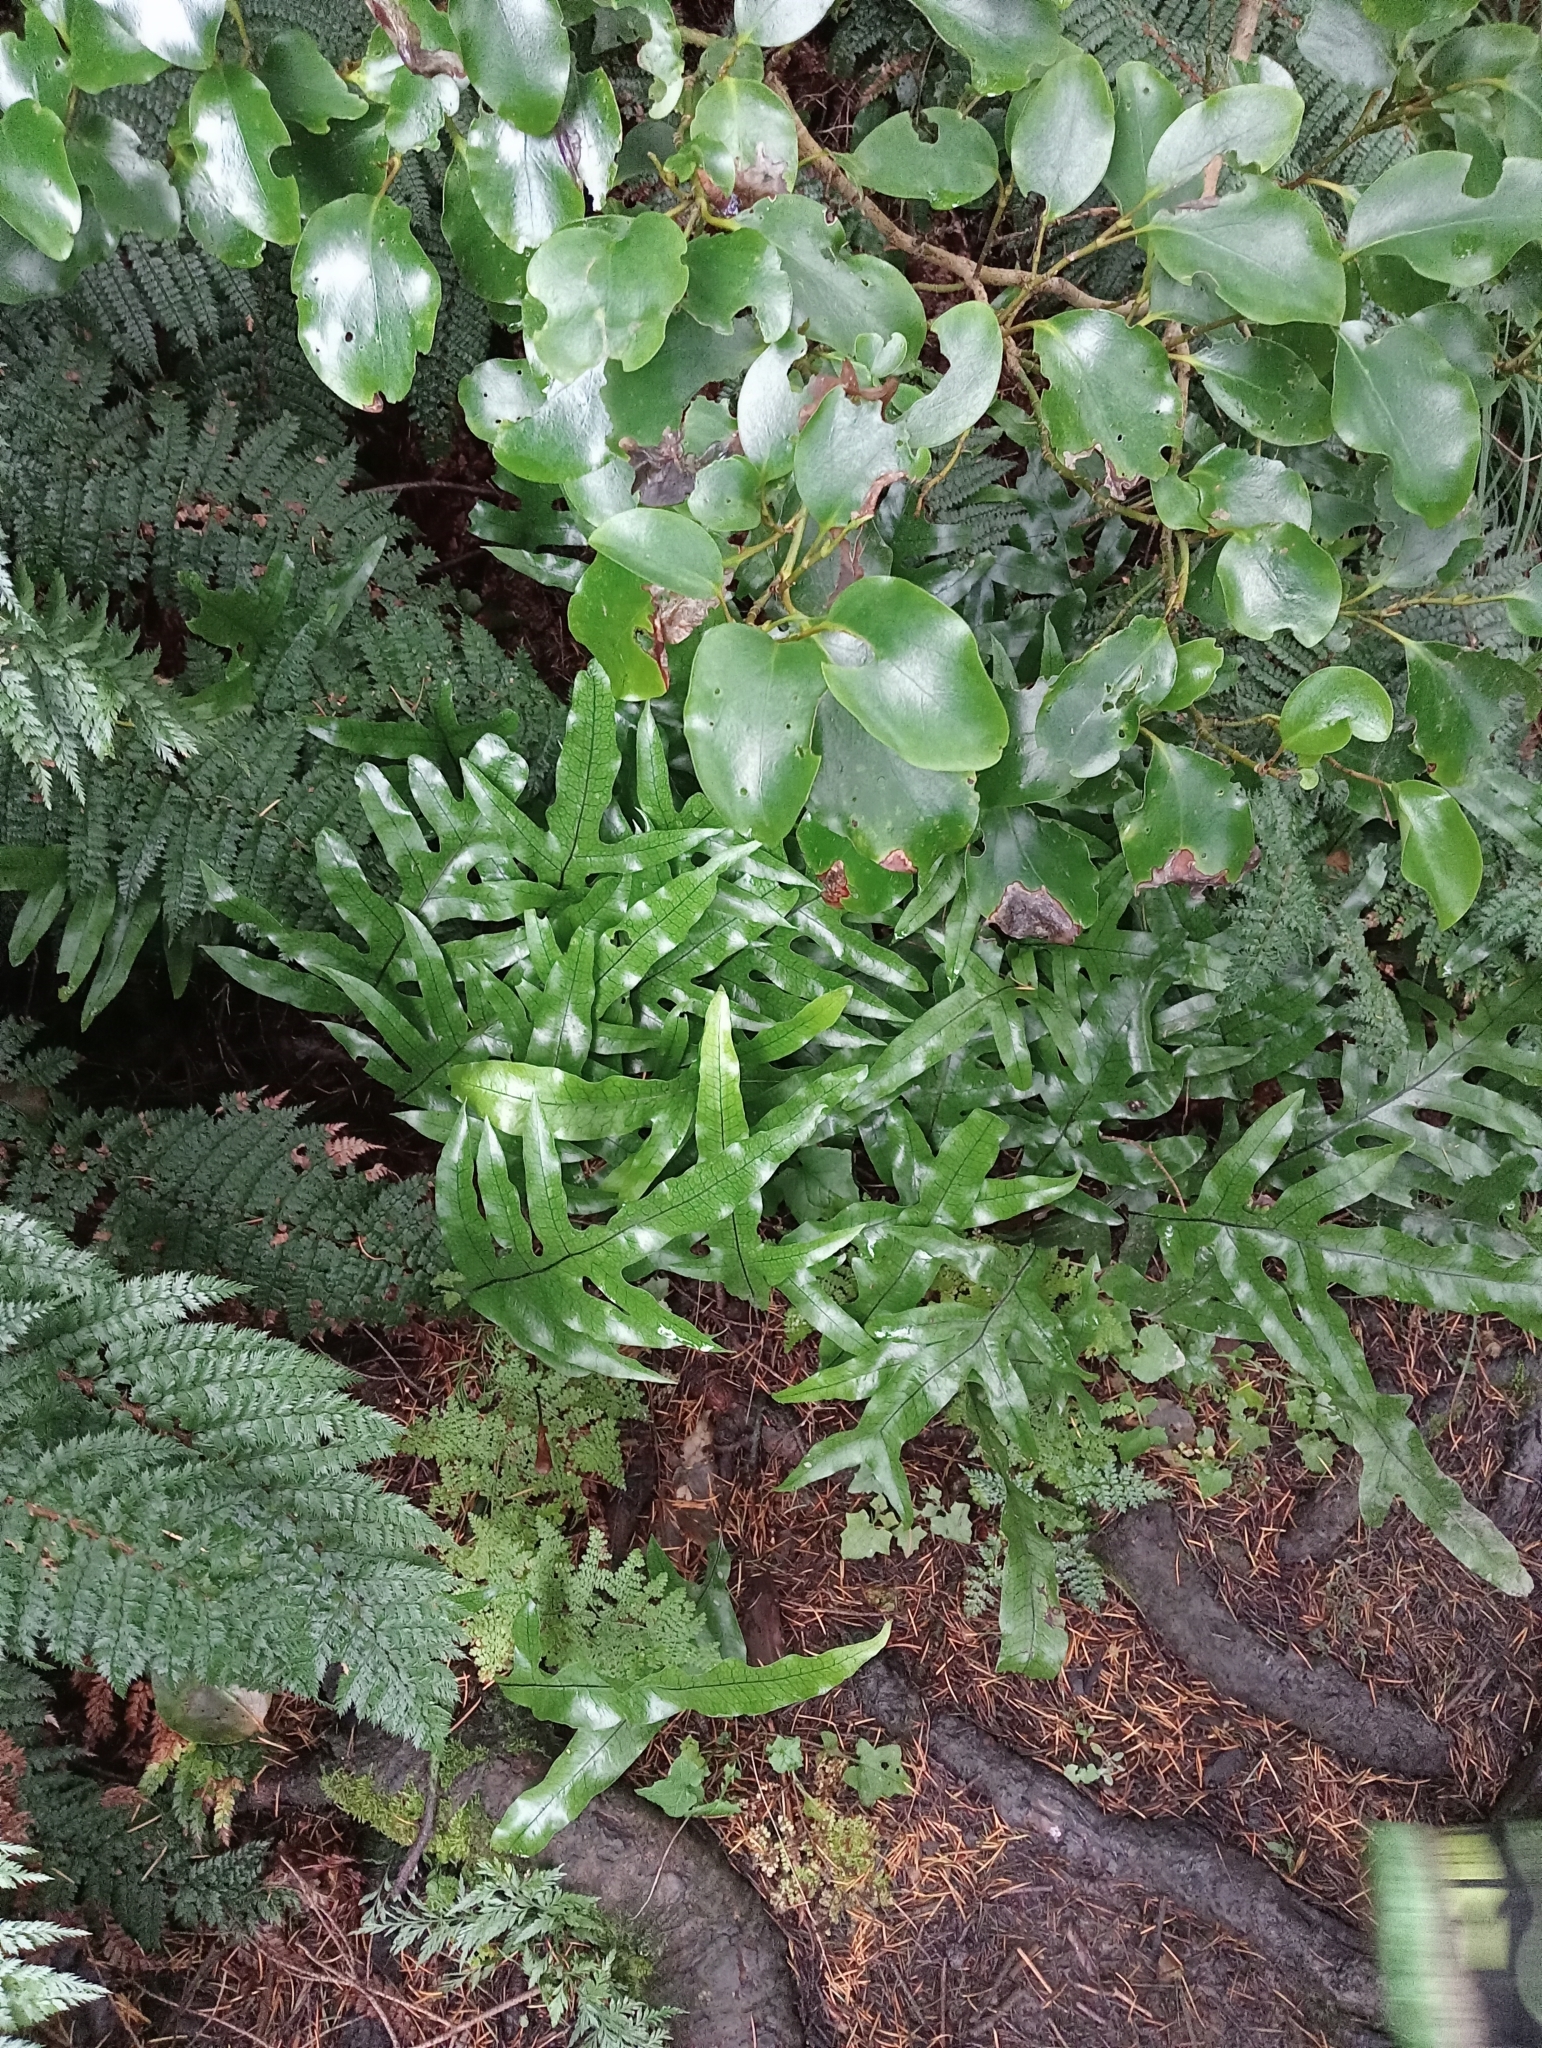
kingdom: Plantae
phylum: Tracheophyta
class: Polypodiopsida
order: Polypodiales
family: Polypodiaceae
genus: Lecanopteris
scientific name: Lecanopteris pustulata
